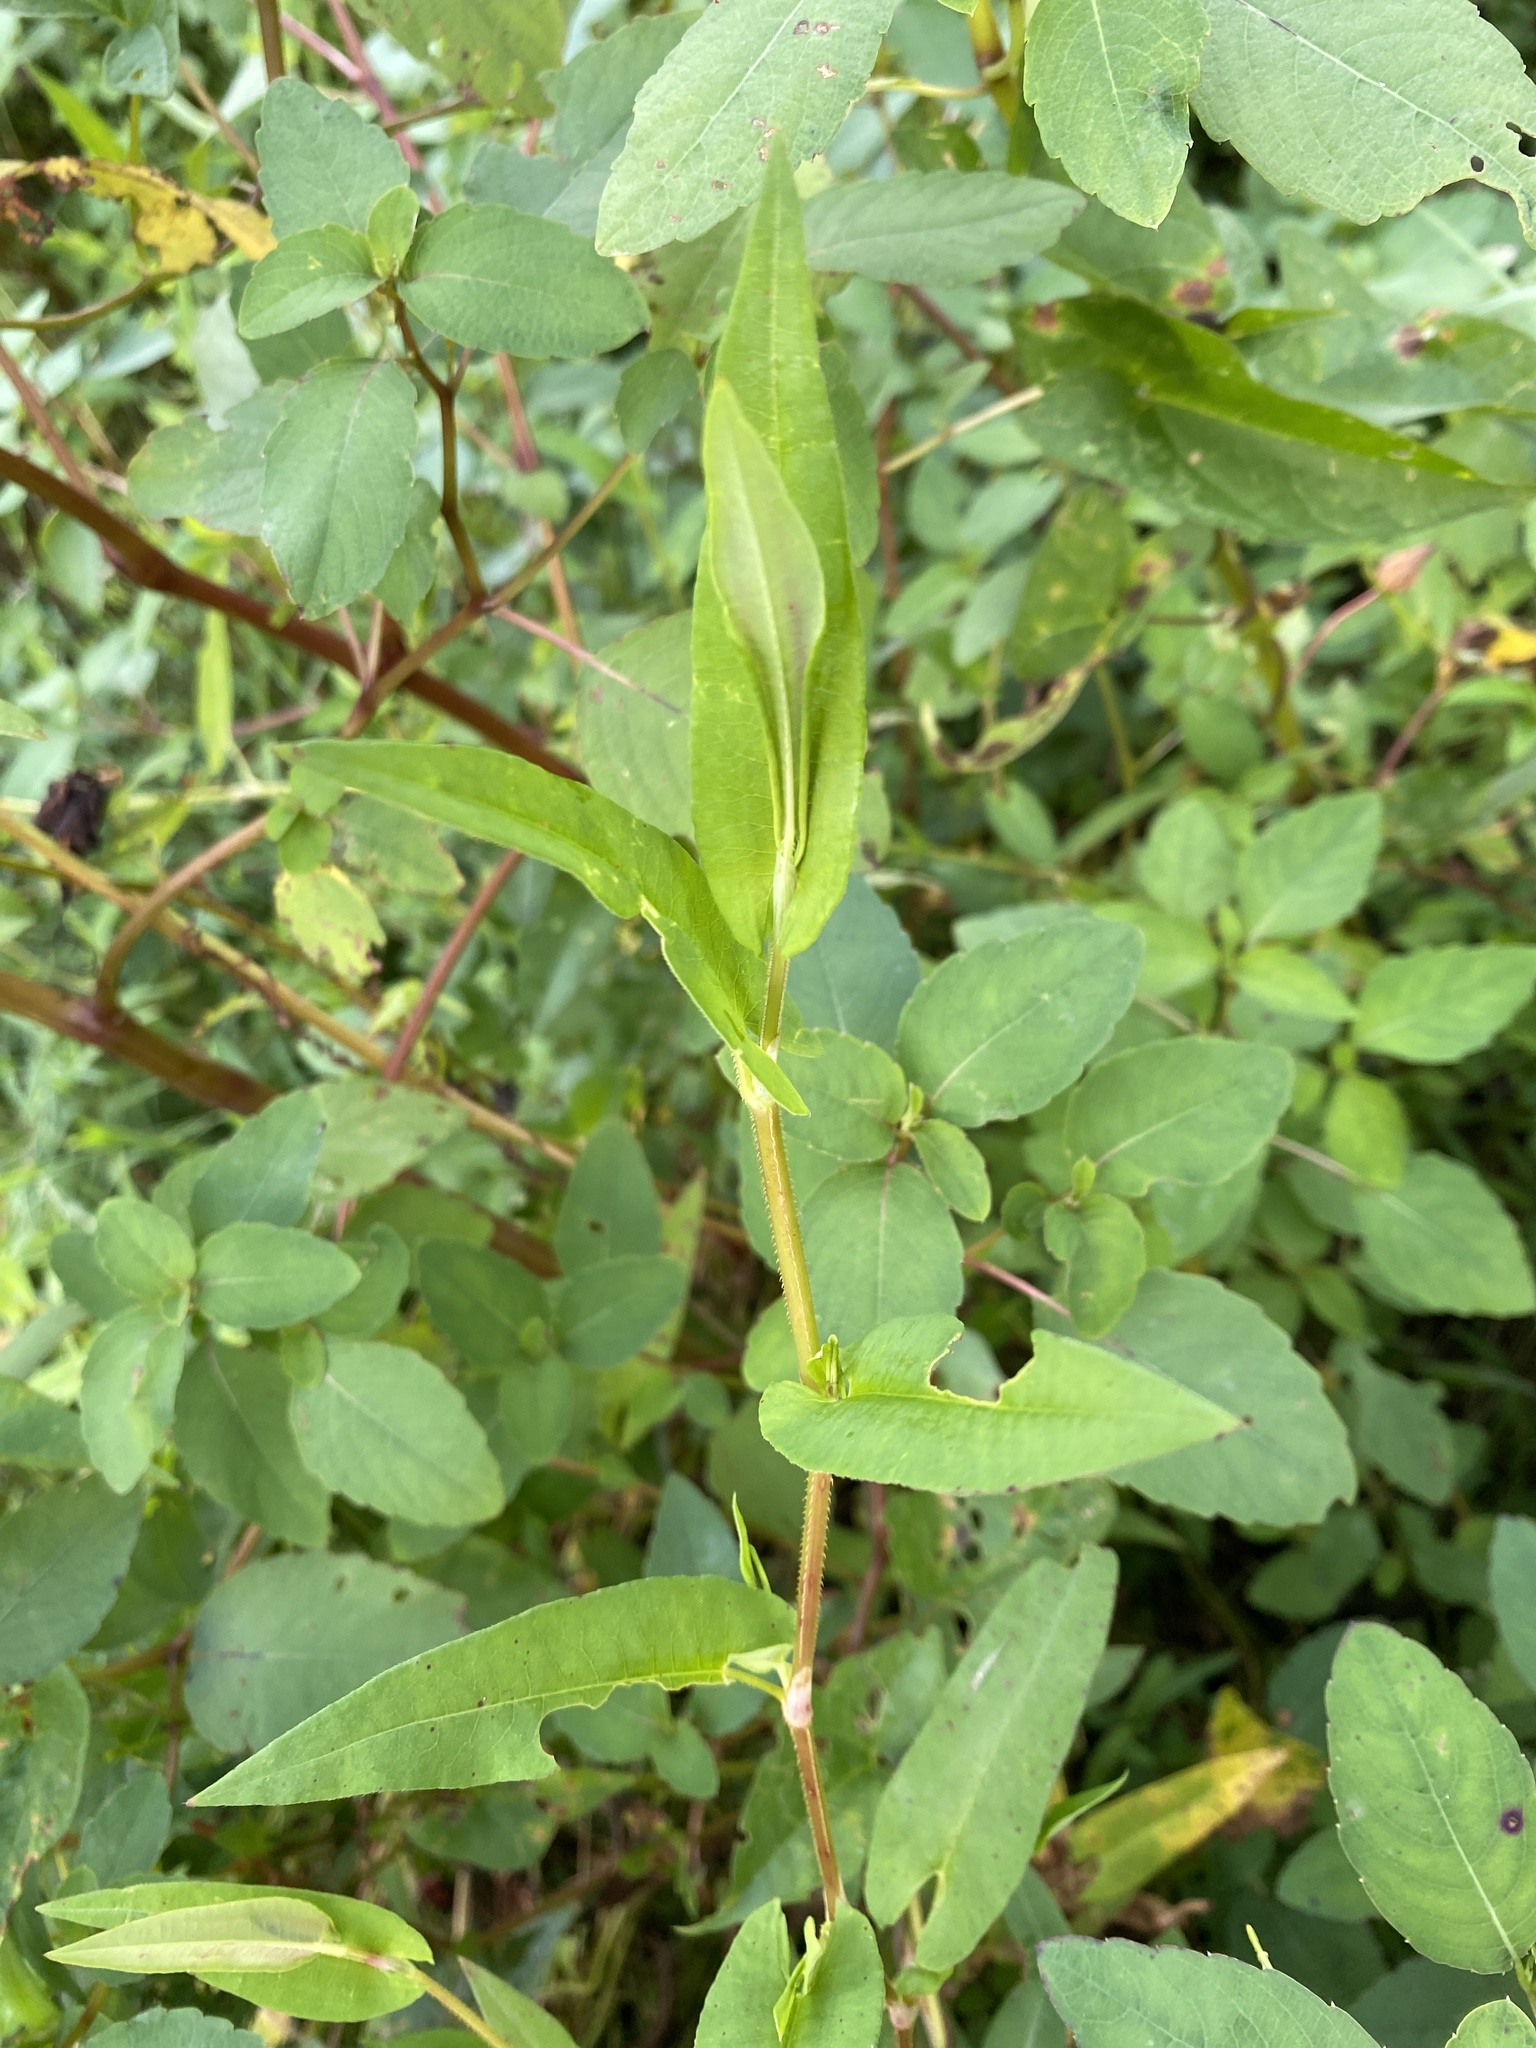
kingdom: Plantae
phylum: Tracheophyta
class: Magnoliopsida
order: Caryophyllales
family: Polygonaceae
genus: Persicaria
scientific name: Persicaria sagittata
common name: American tearthumb
